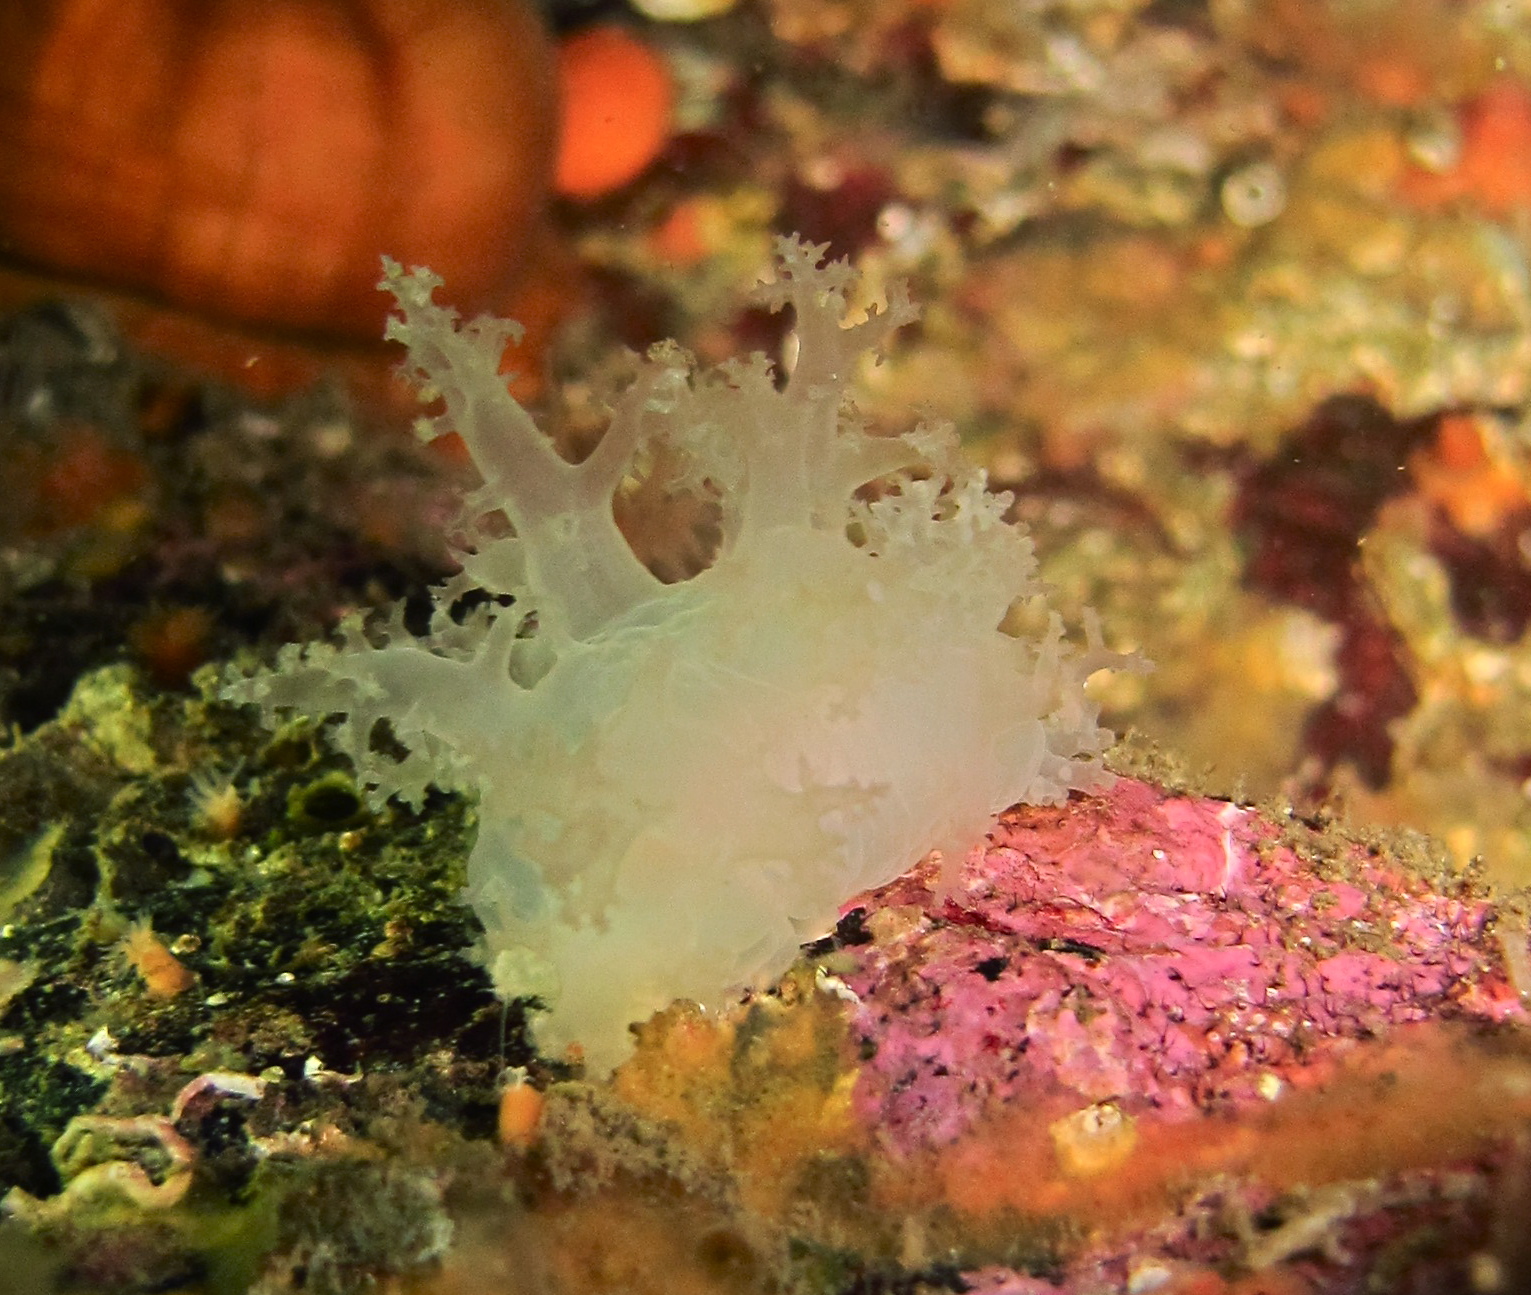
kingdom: Animalia
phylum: Mollusca
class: Gastropoda
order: Nudibranchia
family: Dendronotidae
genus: Dendronotus
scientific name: Dendronotus frondosus
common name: Bushy-backed nudibranch
